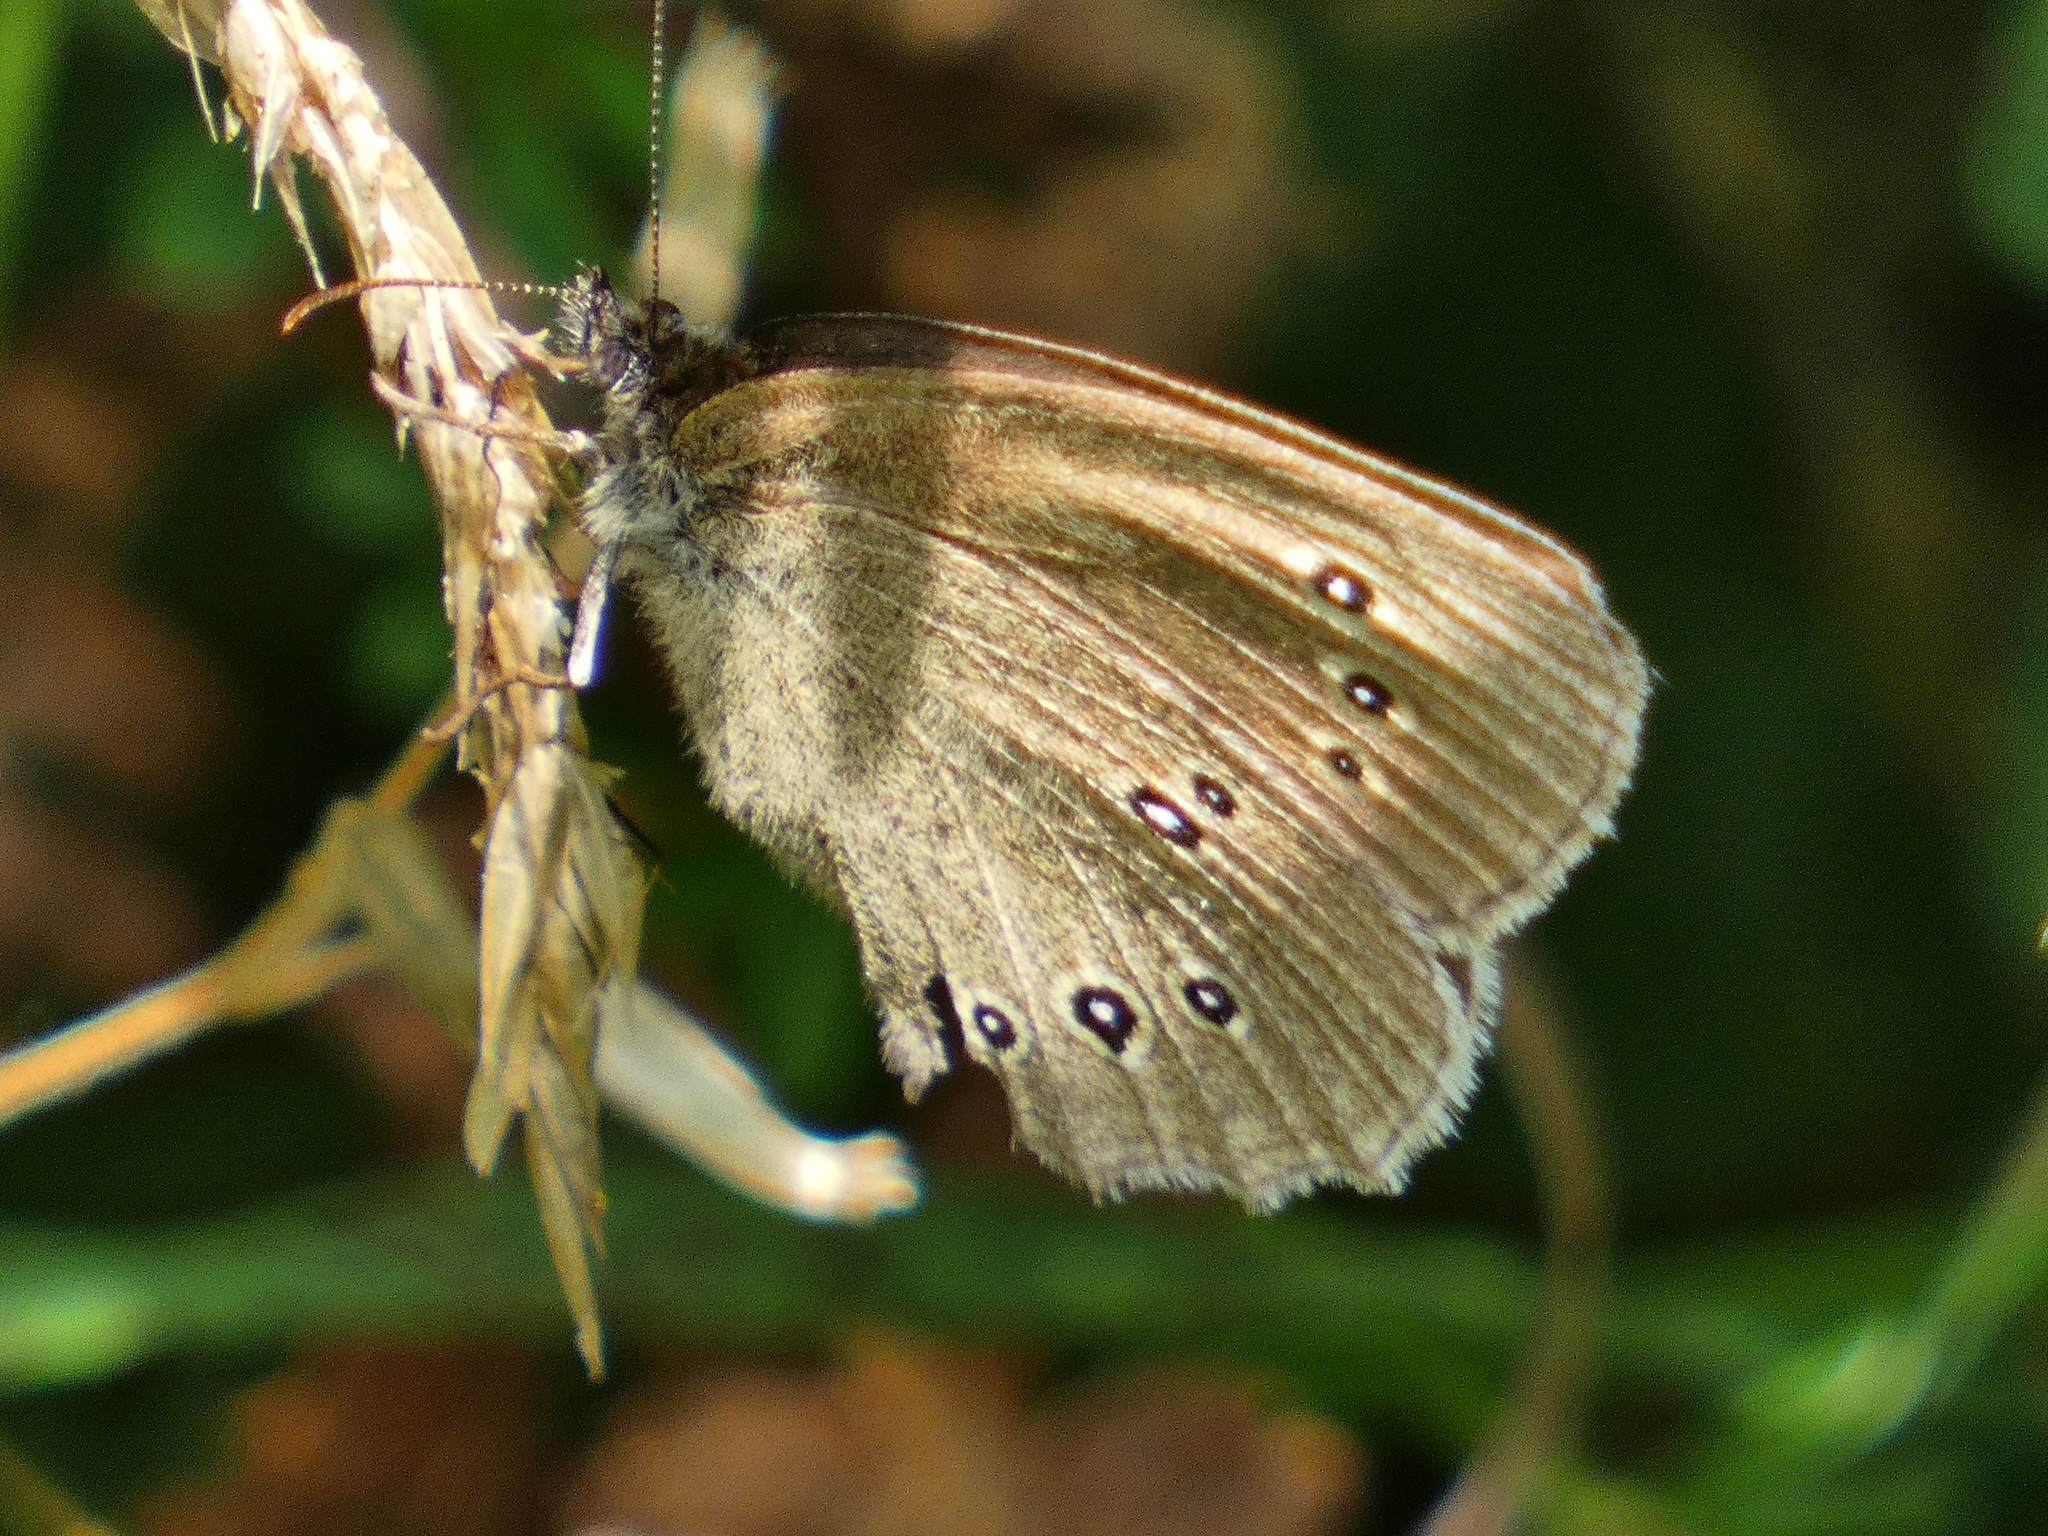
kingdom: Animalia
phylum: Arthropoda
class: Insecta
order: Lepidoptera
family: Nymphalidae
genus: Aphantopus
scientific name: Aphantopus hyperantus
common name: Ringlet
